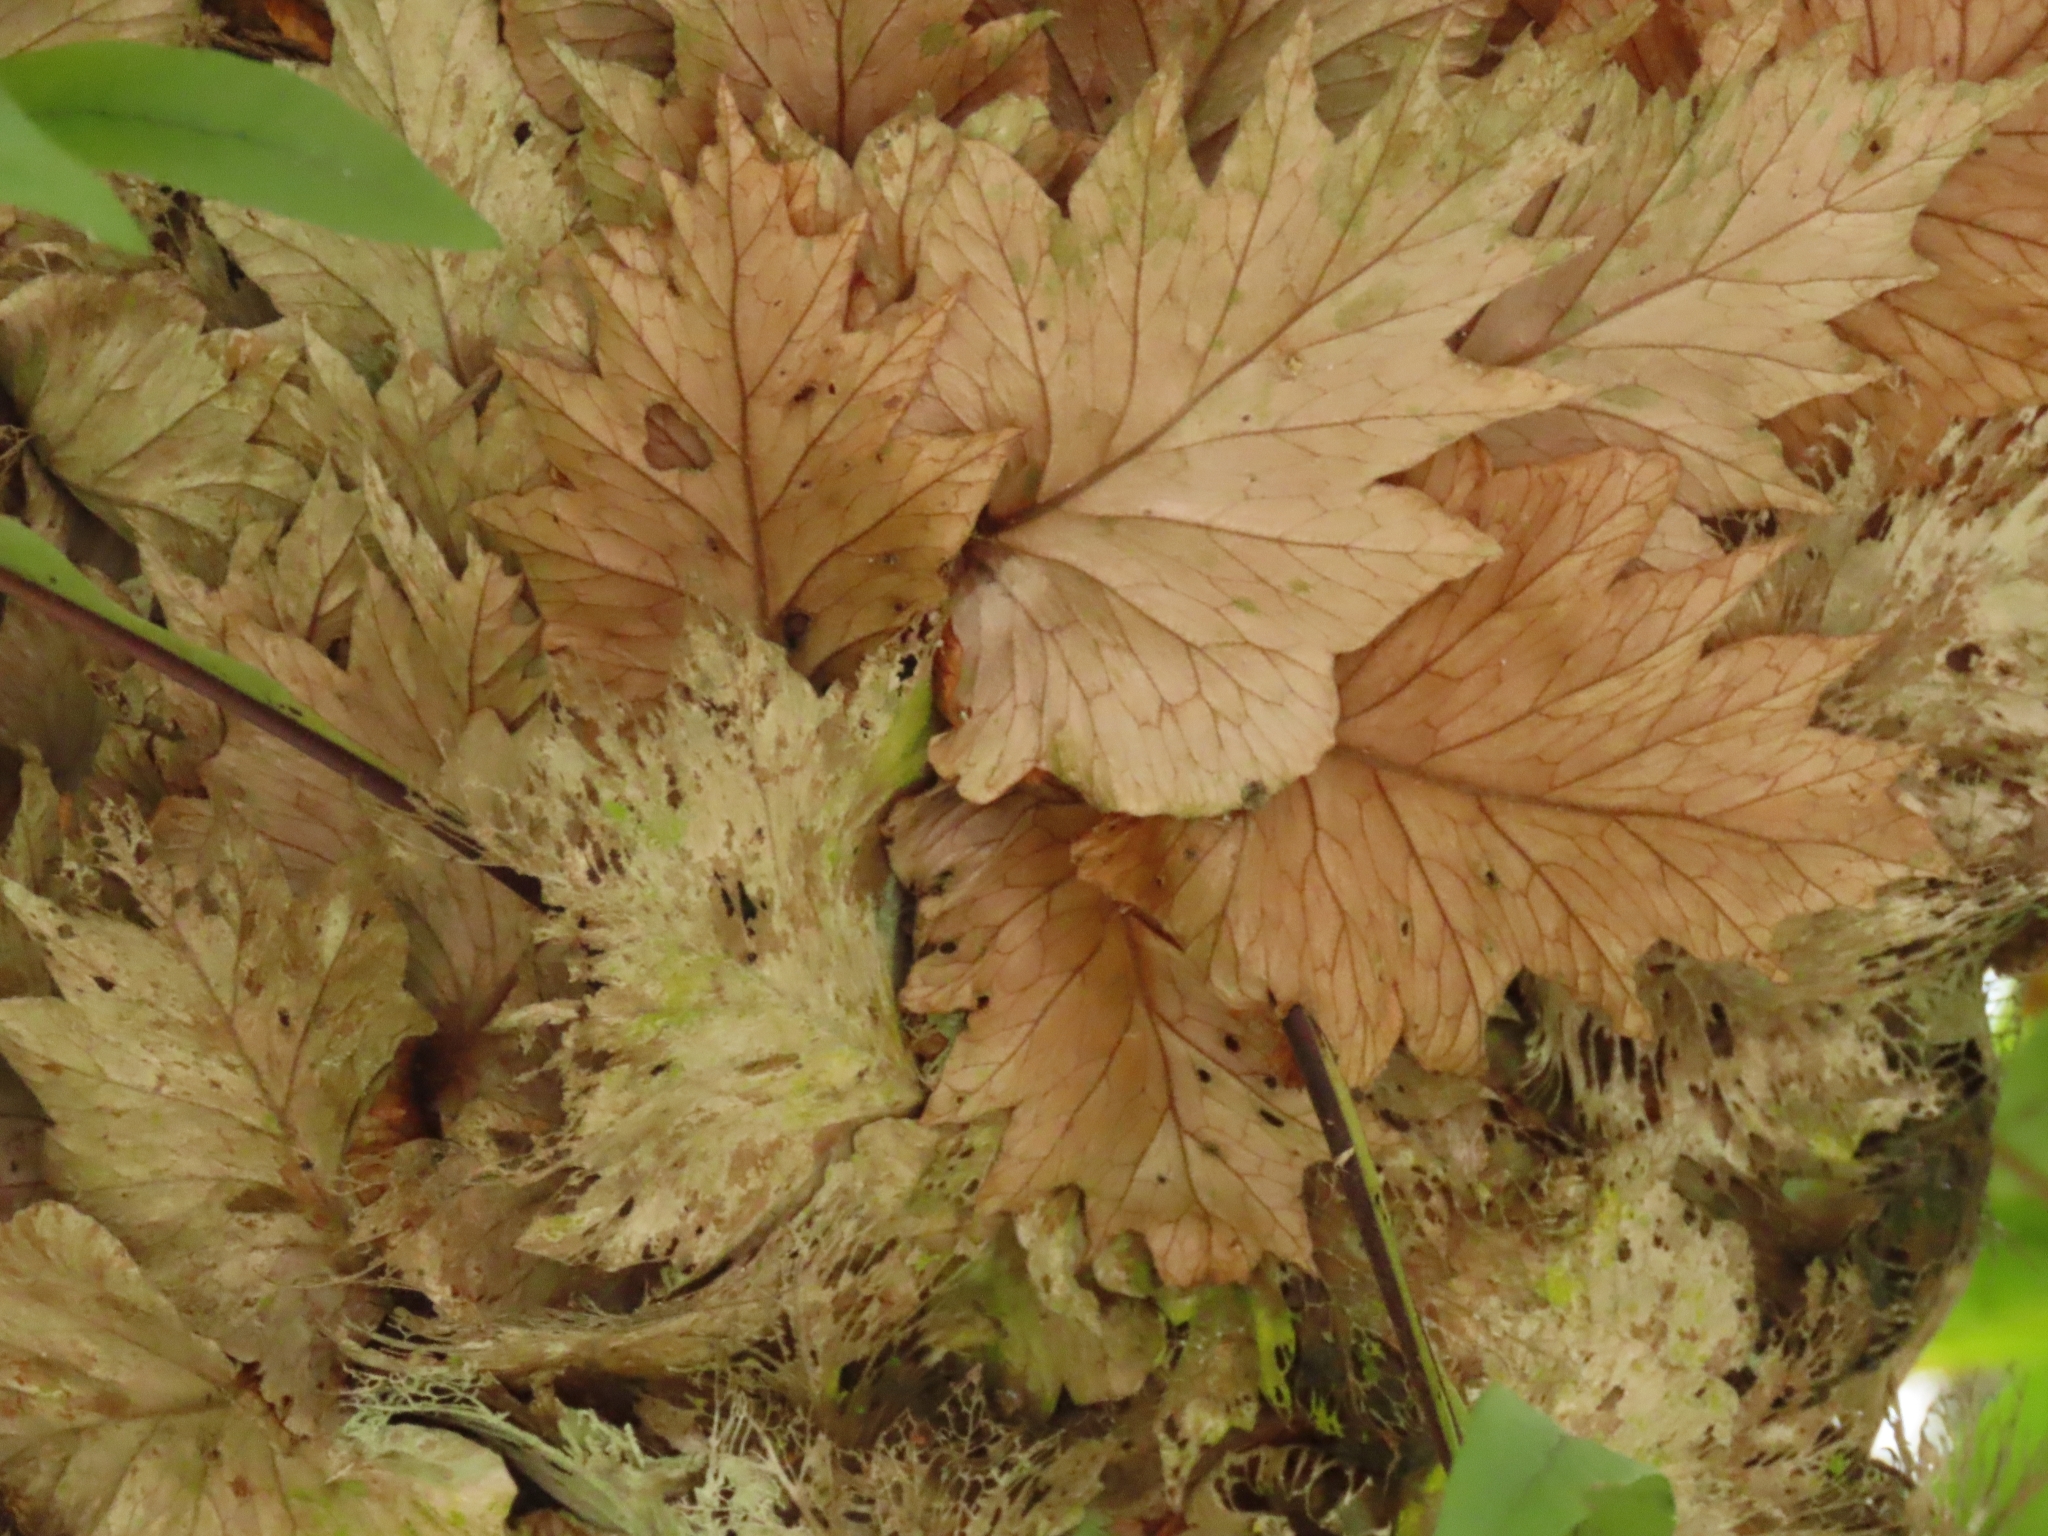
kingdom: Plantae
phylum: Tracheophyta
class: Polypodiopsida
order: Polypodiales
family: Polypodiaceae
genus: Drynaria
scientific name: Drynaria roosii
